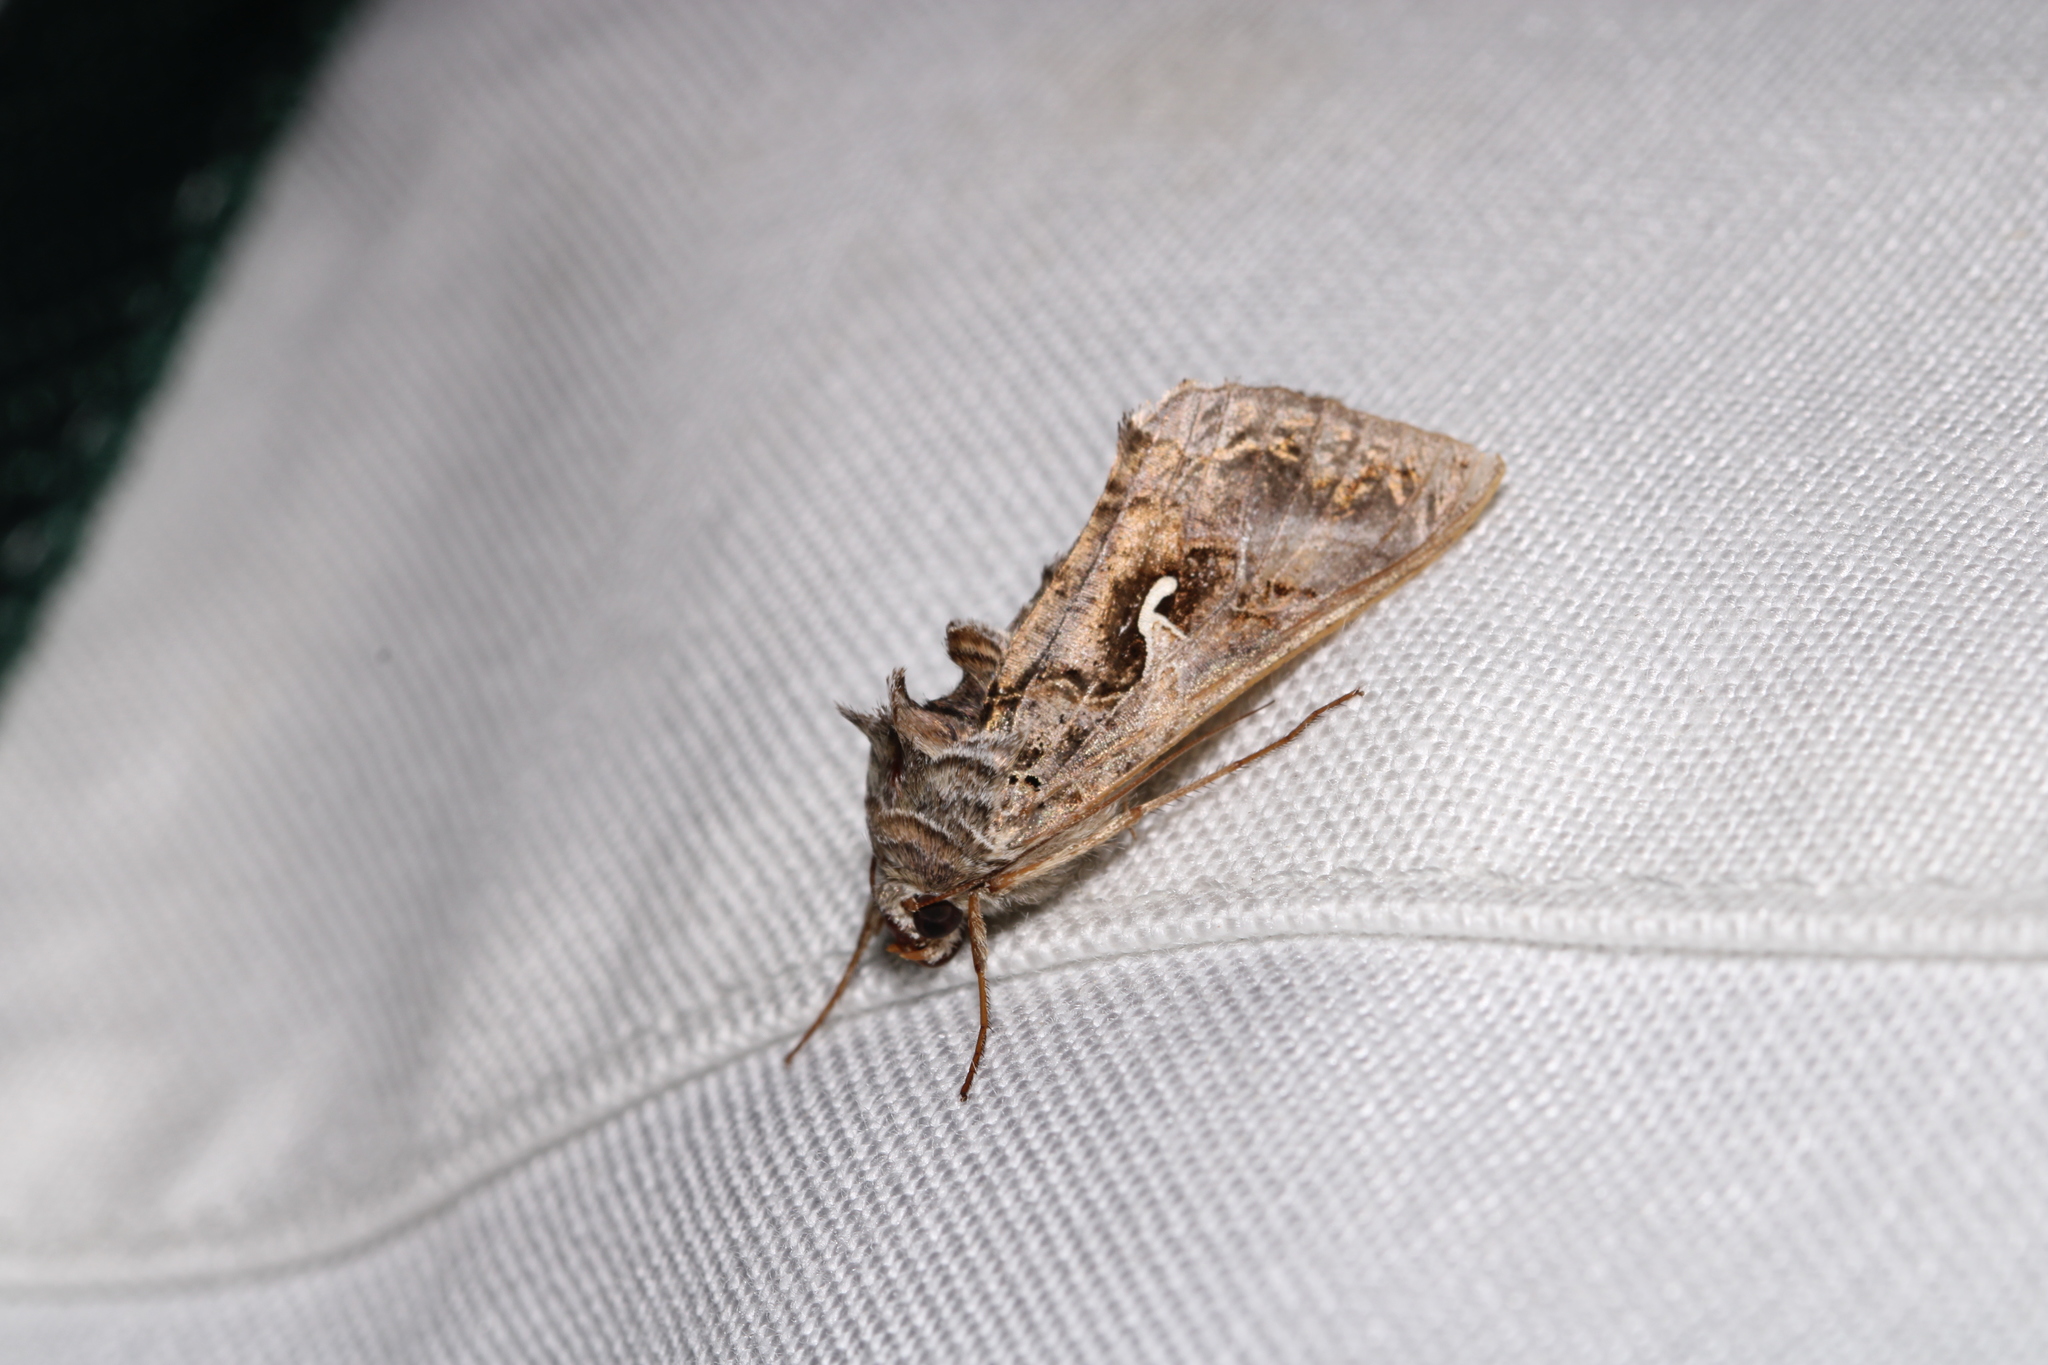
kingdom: Animalia
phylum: Arthropoda
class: Insecta
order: Lepidoptera
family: Noctuidae
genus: Autographa
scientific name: Autographa gamma
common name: Silver y
